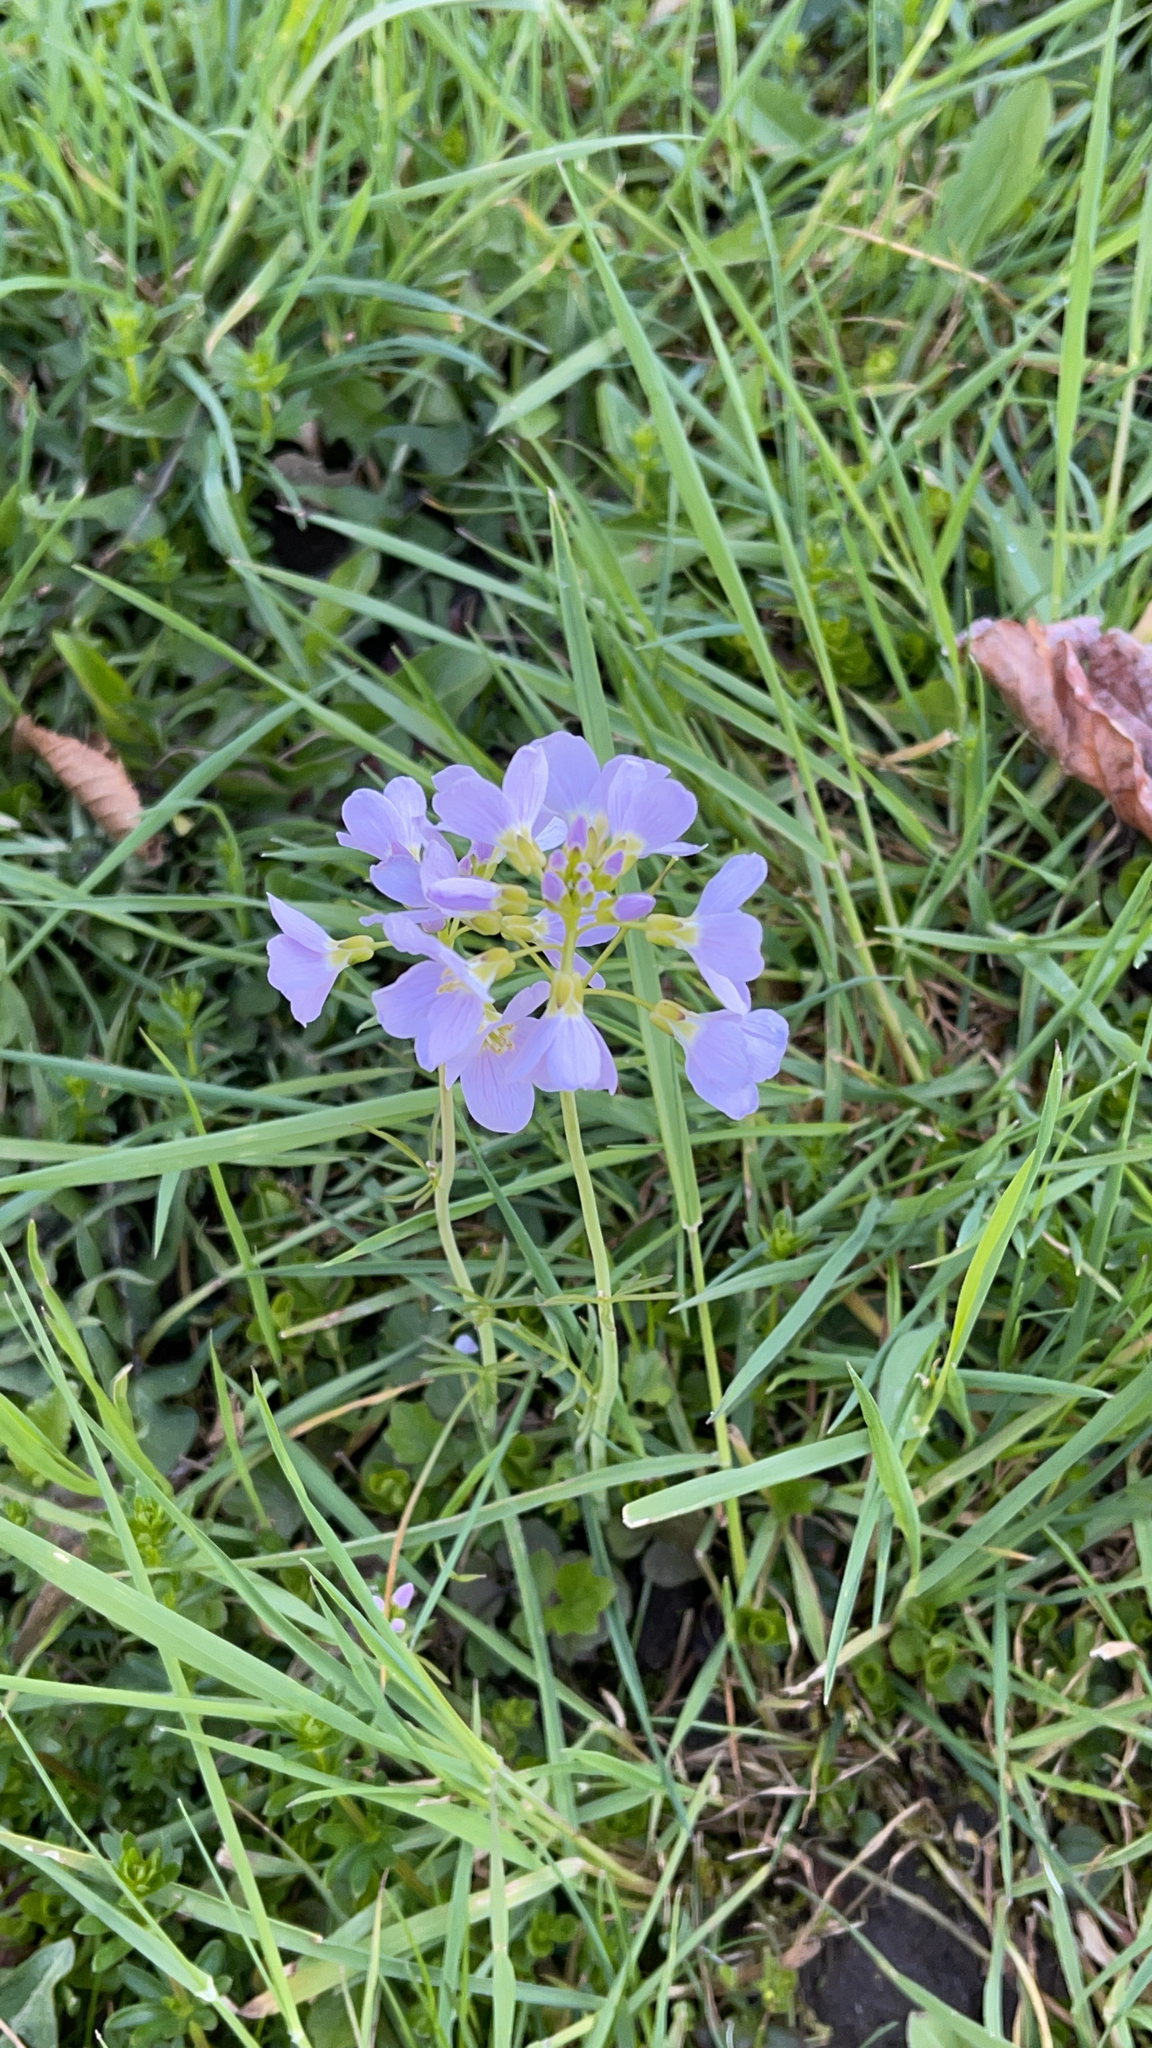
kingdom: Plantae
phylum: Tracheophyta
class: Magnoliopsida
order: Brassicales
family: Brassicaceae
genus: Cardamine
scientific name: Cardamine pratensis
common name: Cuckoo flower
